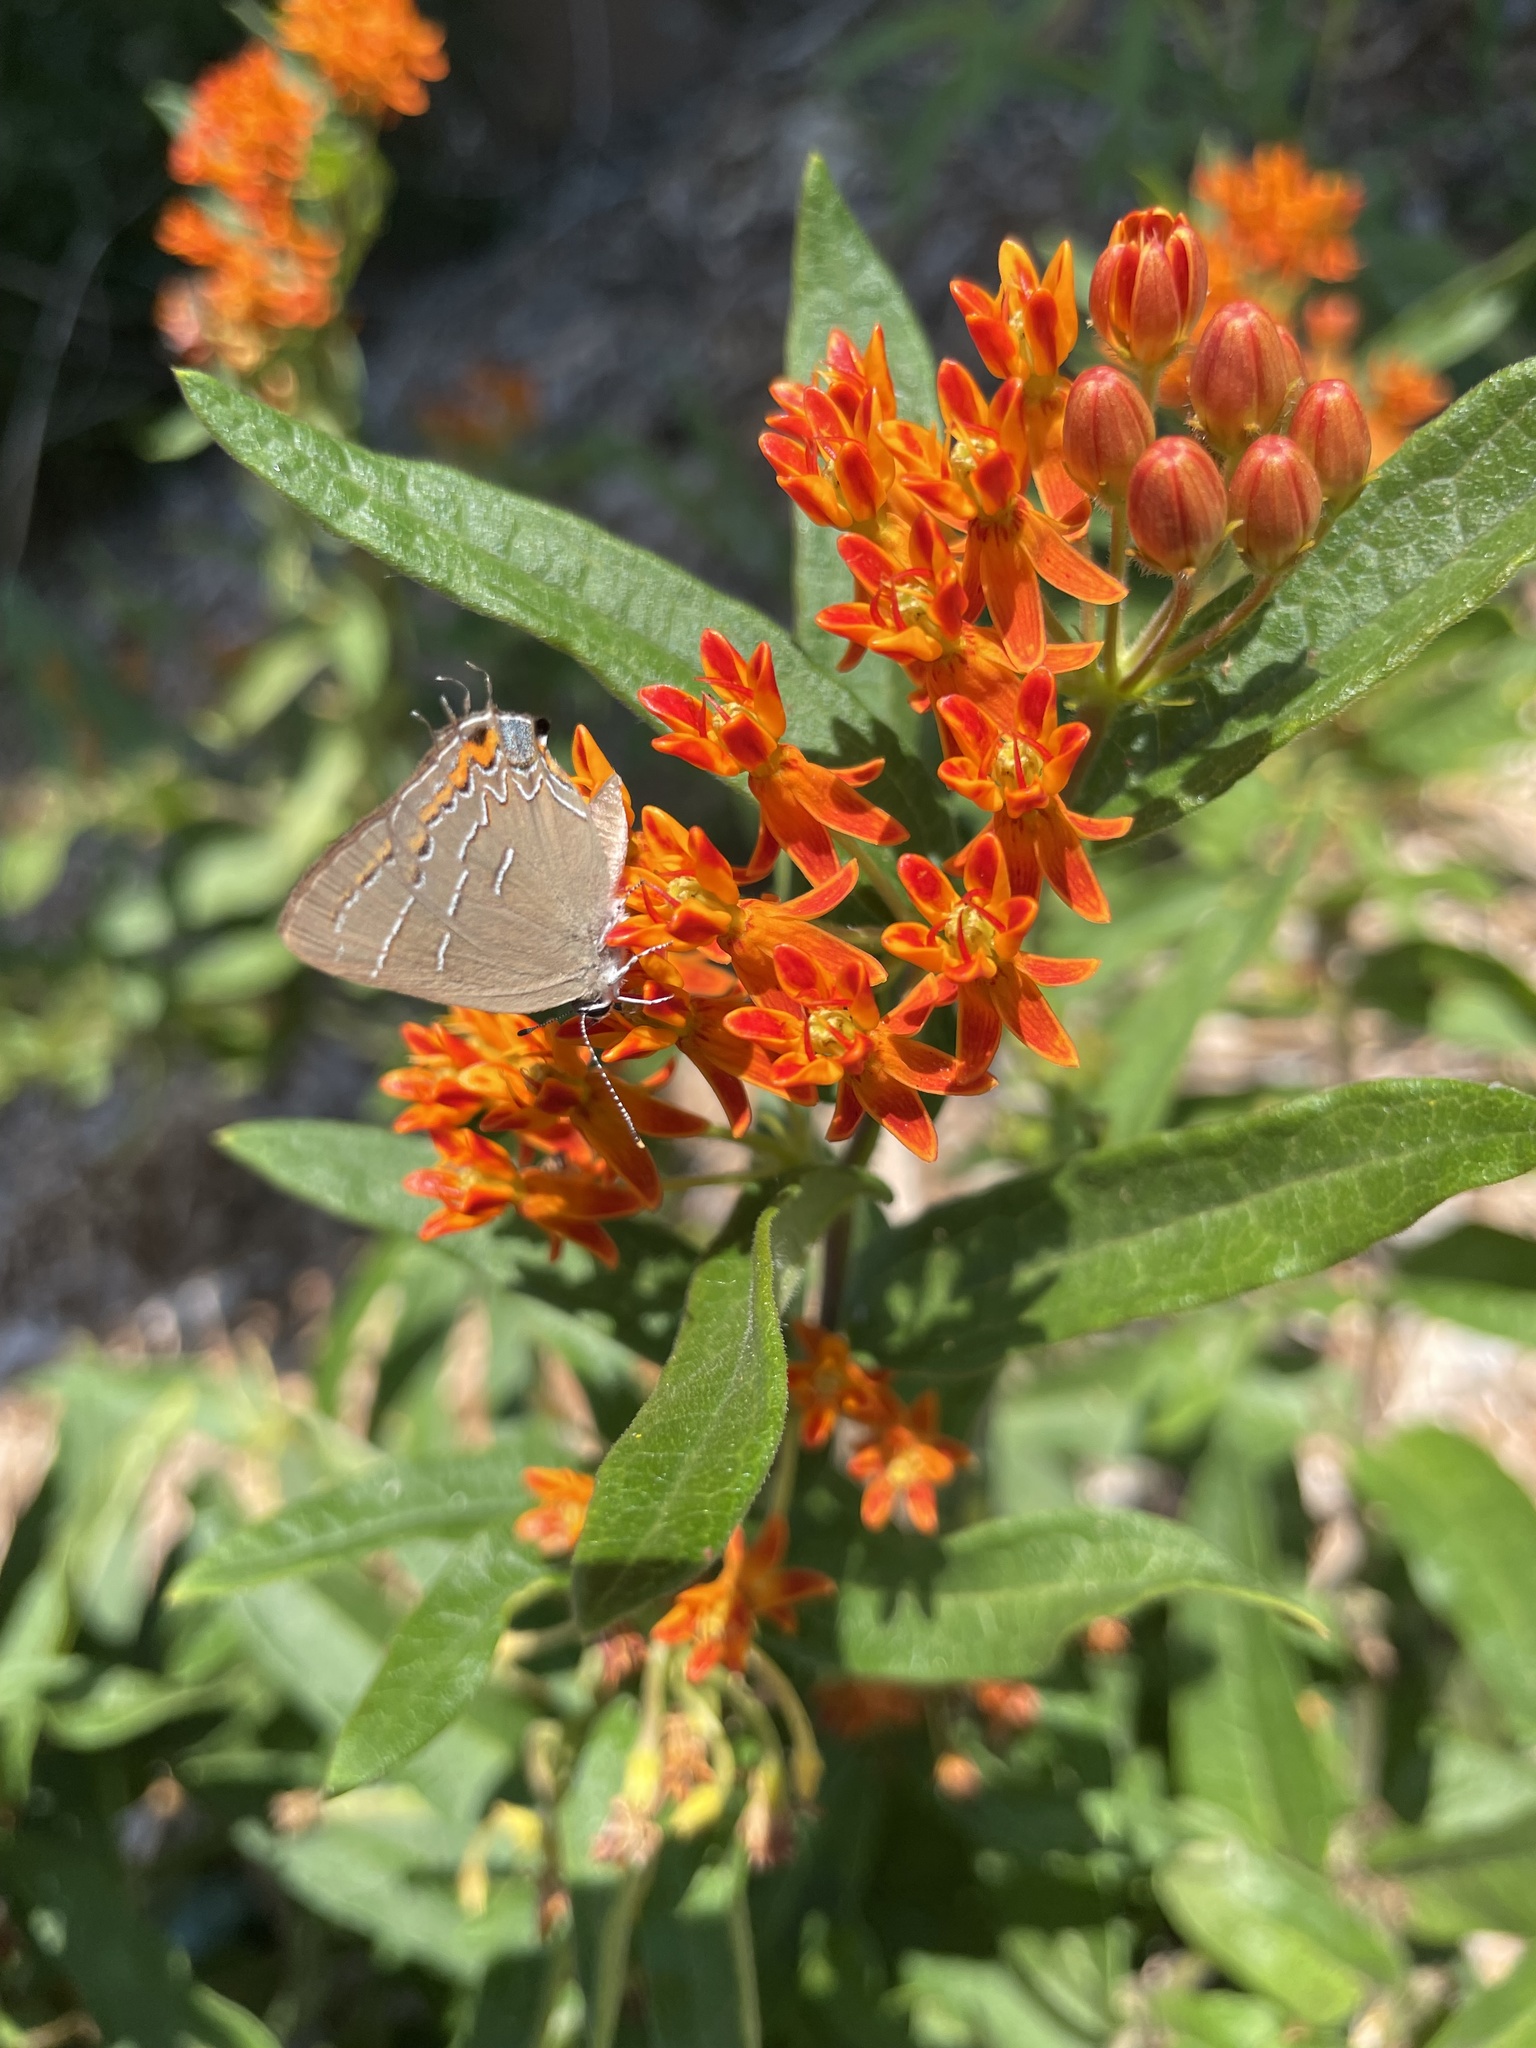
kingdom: Animalia
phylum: Arthropoda
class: Insecta
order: Lepidoptera
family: Lycaenidae
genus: Phaeostrymon
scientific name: Phaeostrymon alcestis
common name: Soapberry hairstreak
